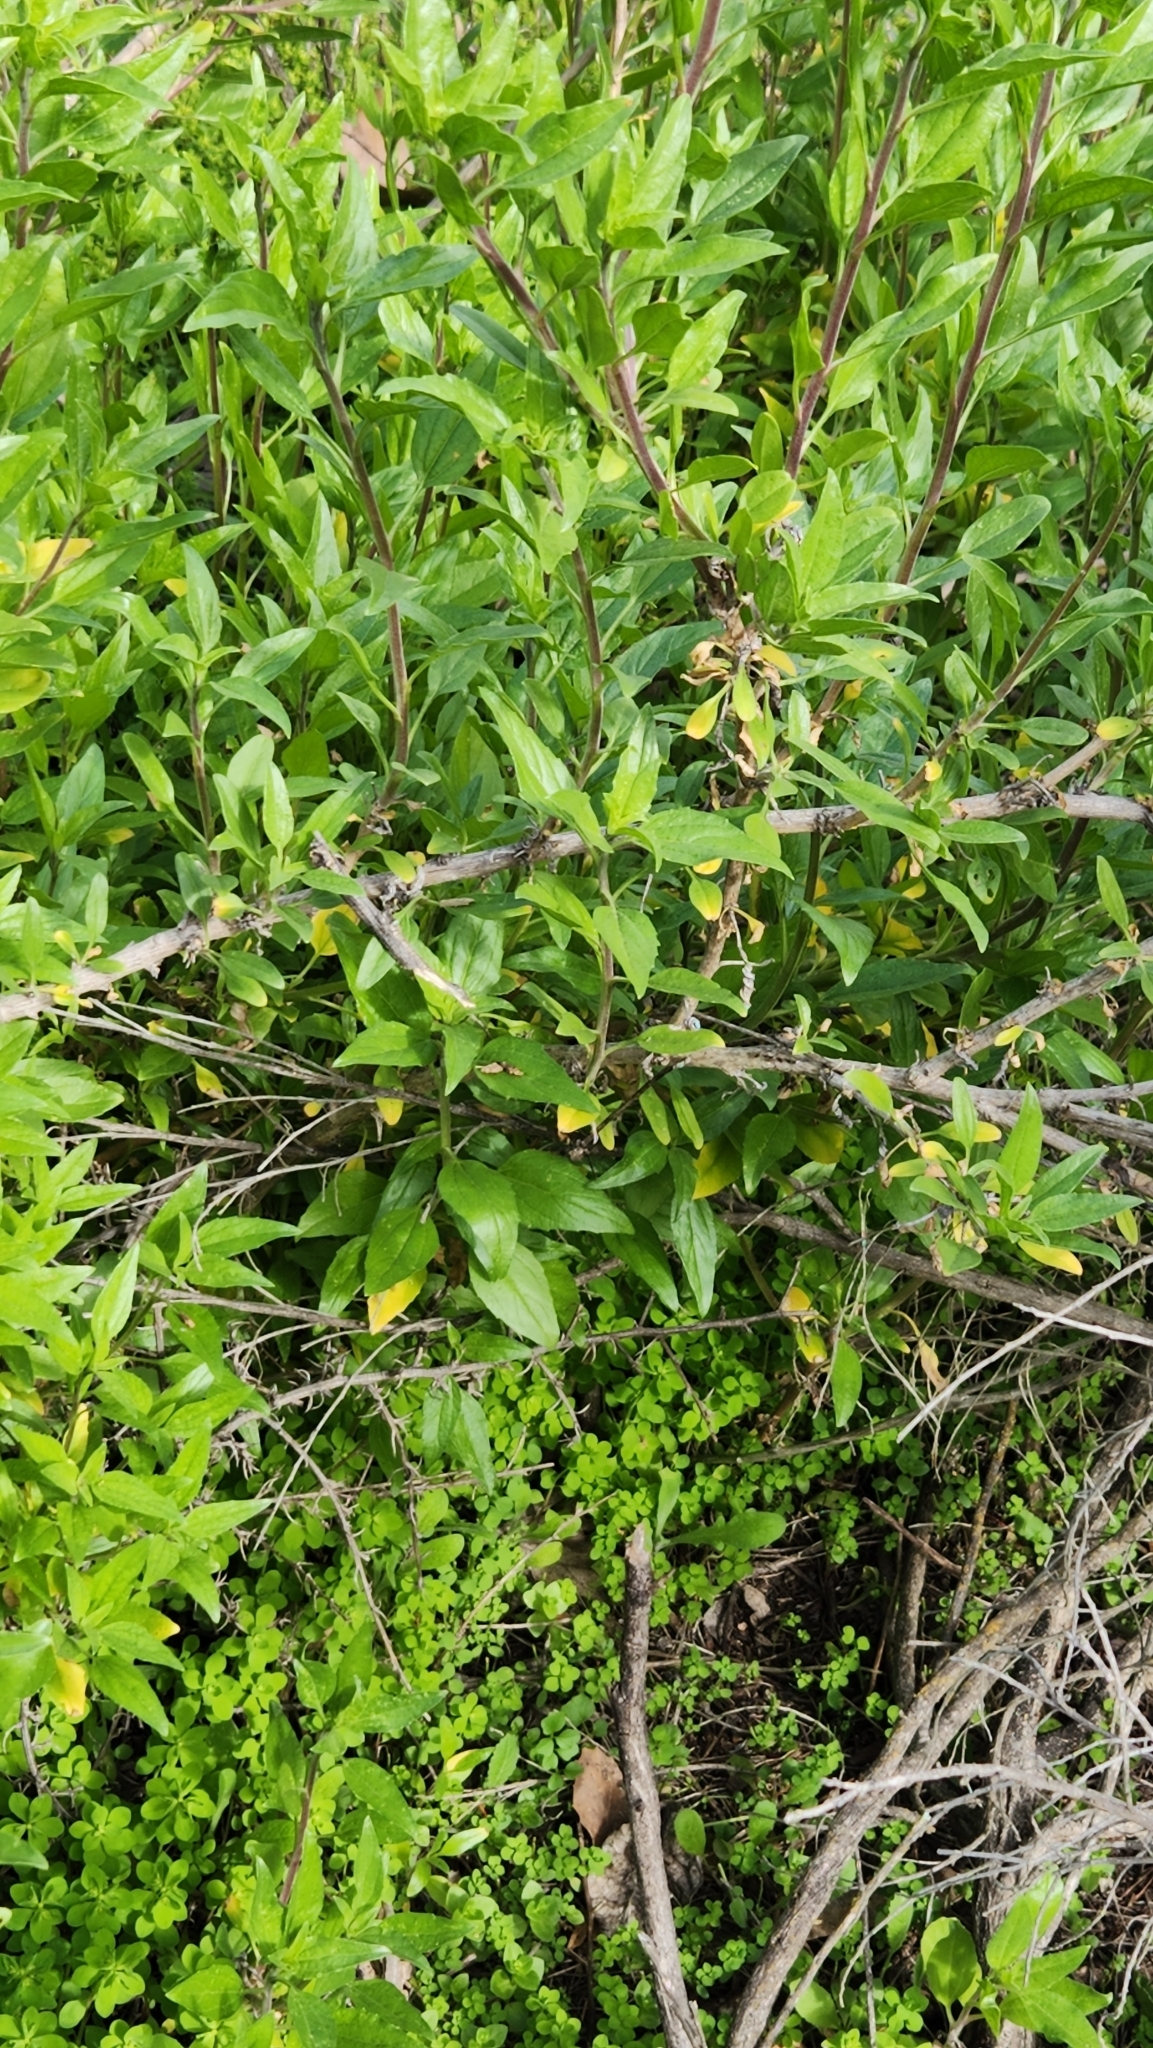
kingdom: Plantae
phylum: Tracheophyta
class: Magnoliopsida
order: Asterales
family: Asteraceae
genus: Encelia
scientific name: Encelia californica
